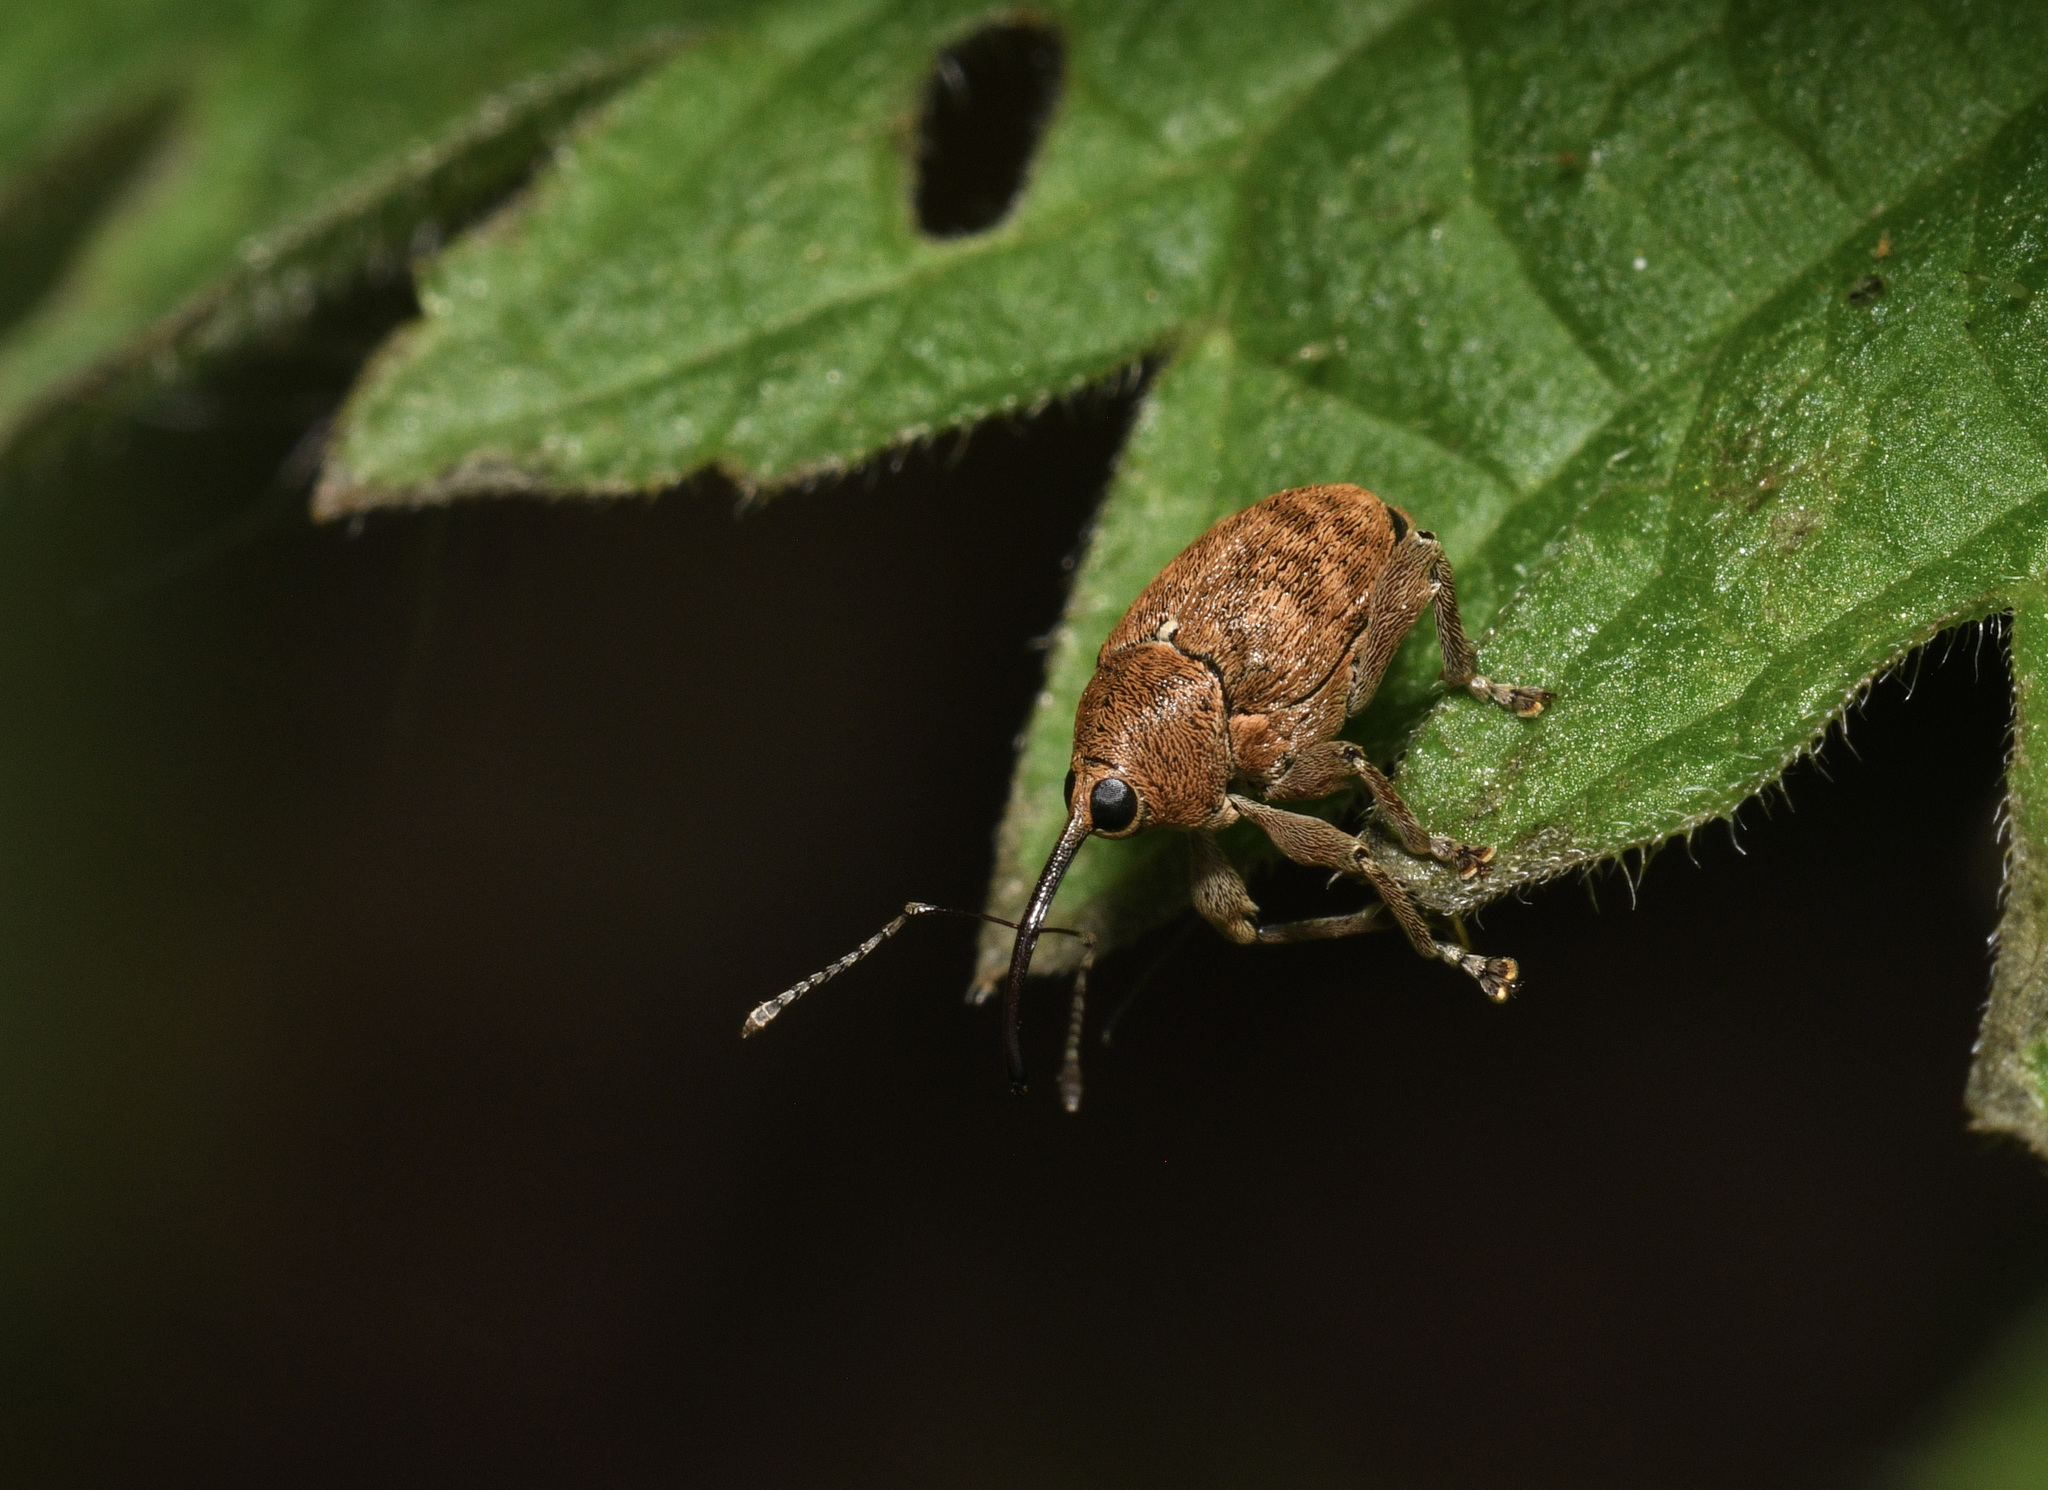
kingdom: Animalia
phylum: Arthropoda
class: Insecta
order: Coleoptera
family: Curculionidae
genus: Curculio
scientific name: Curculio glandium
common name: Acorn weevil
